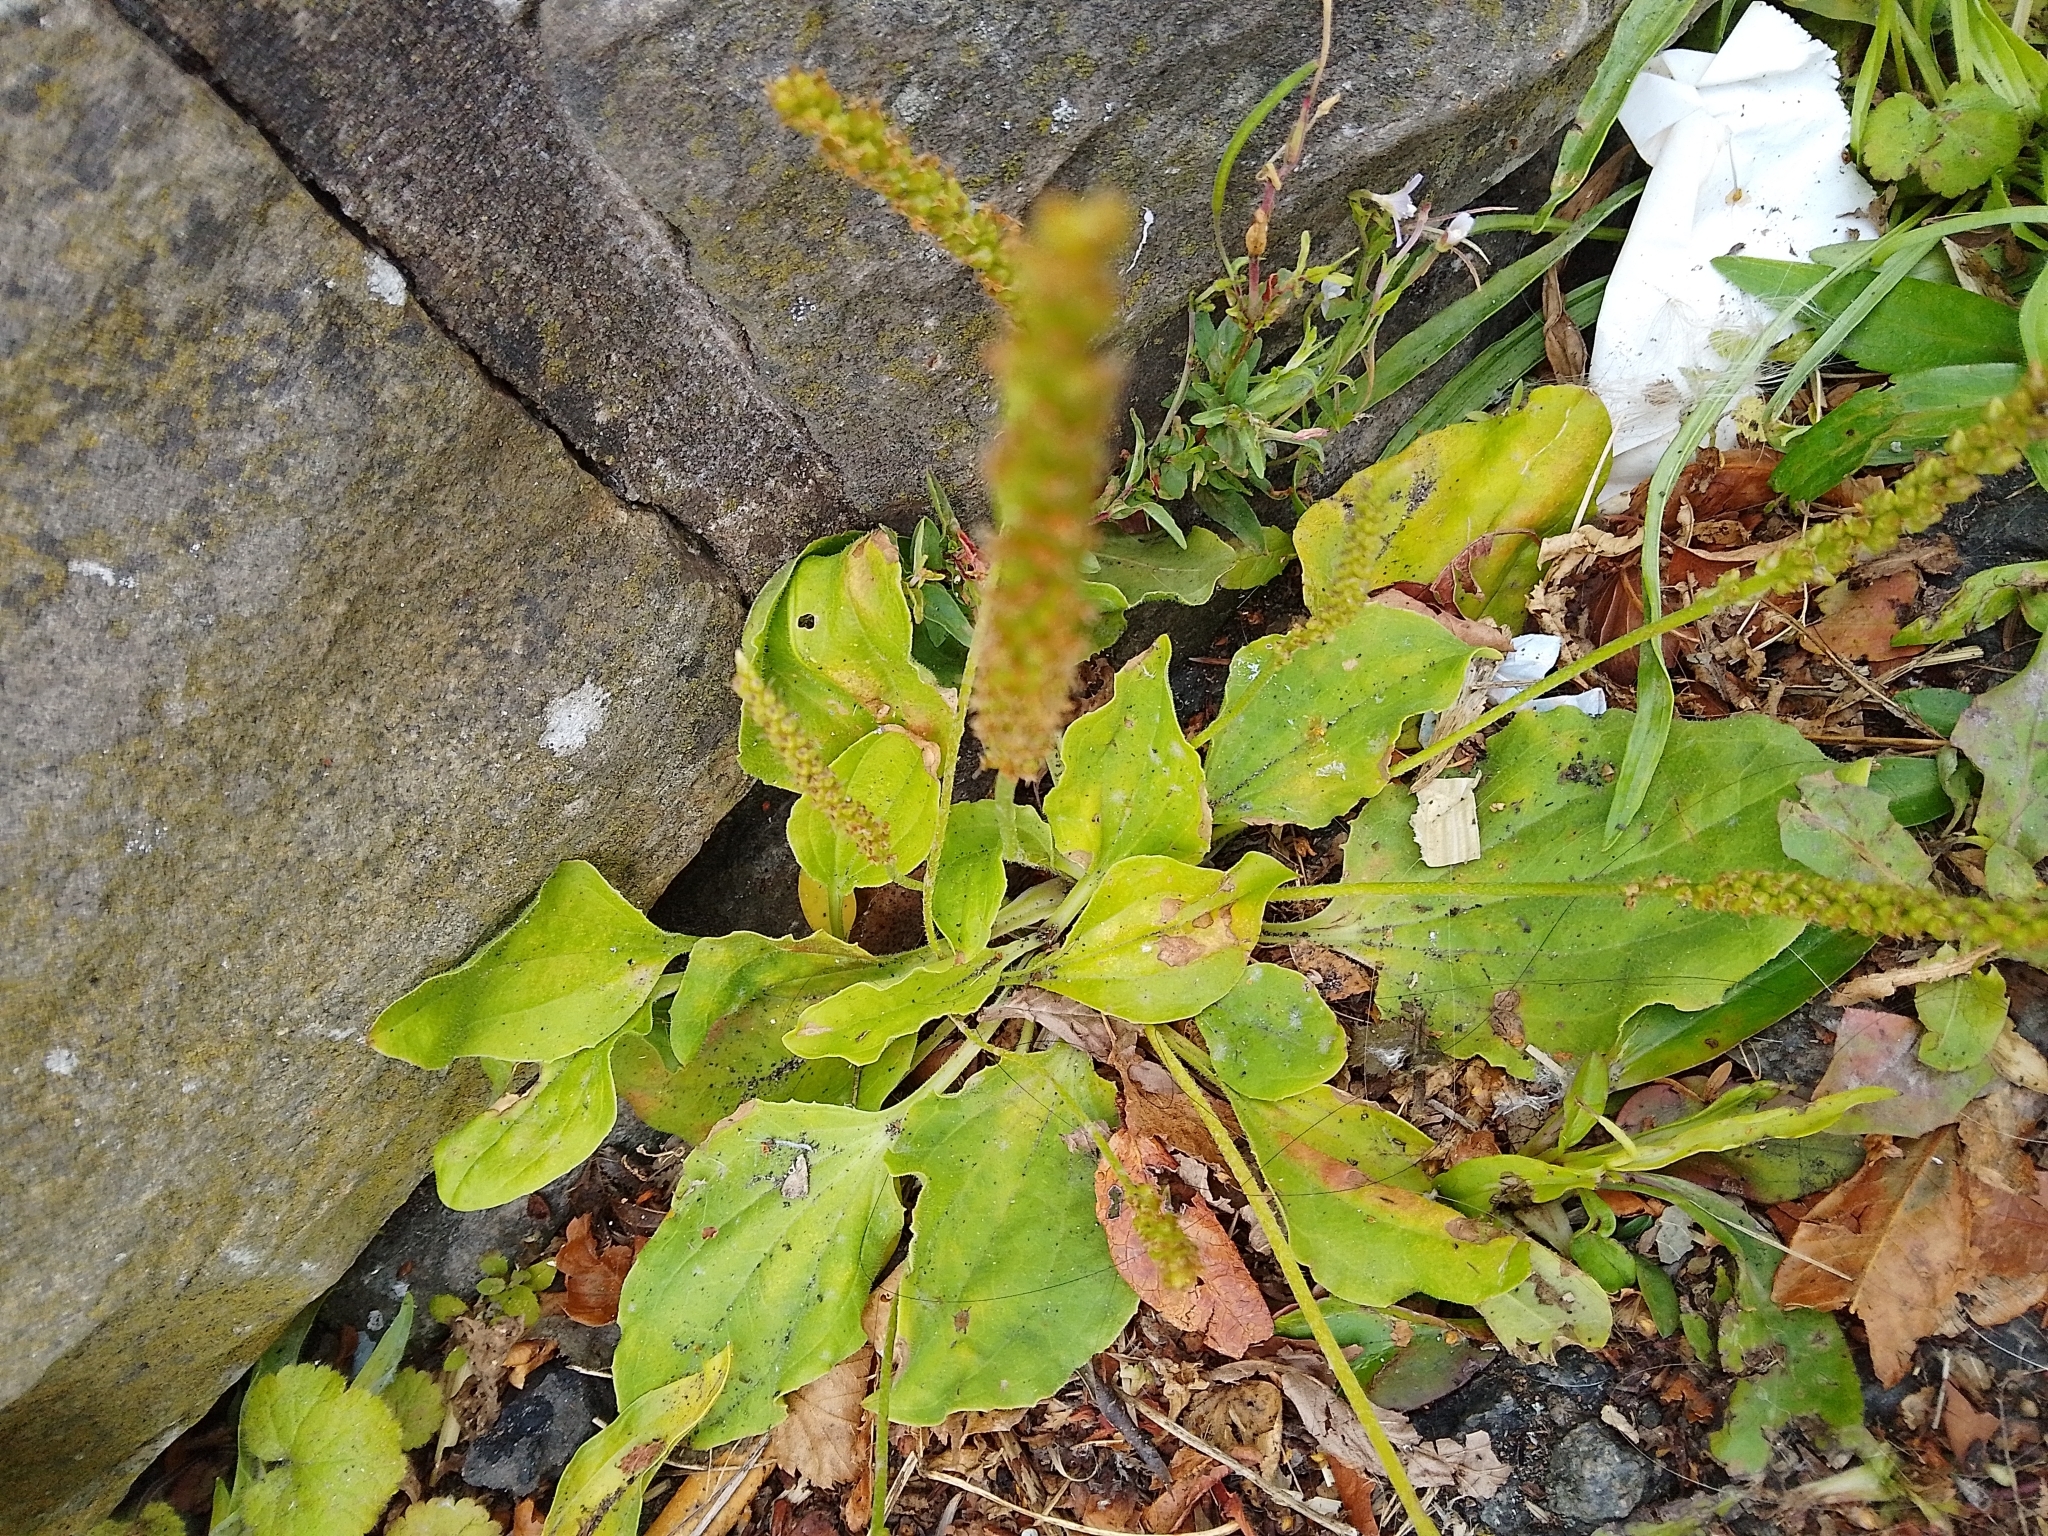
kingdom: Plantae
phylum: Tracheophyta
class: Magnoliopsida
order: Lamiales
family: Plantaginaceae
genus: Plantago
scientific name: Plantago major
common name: Common plantain
